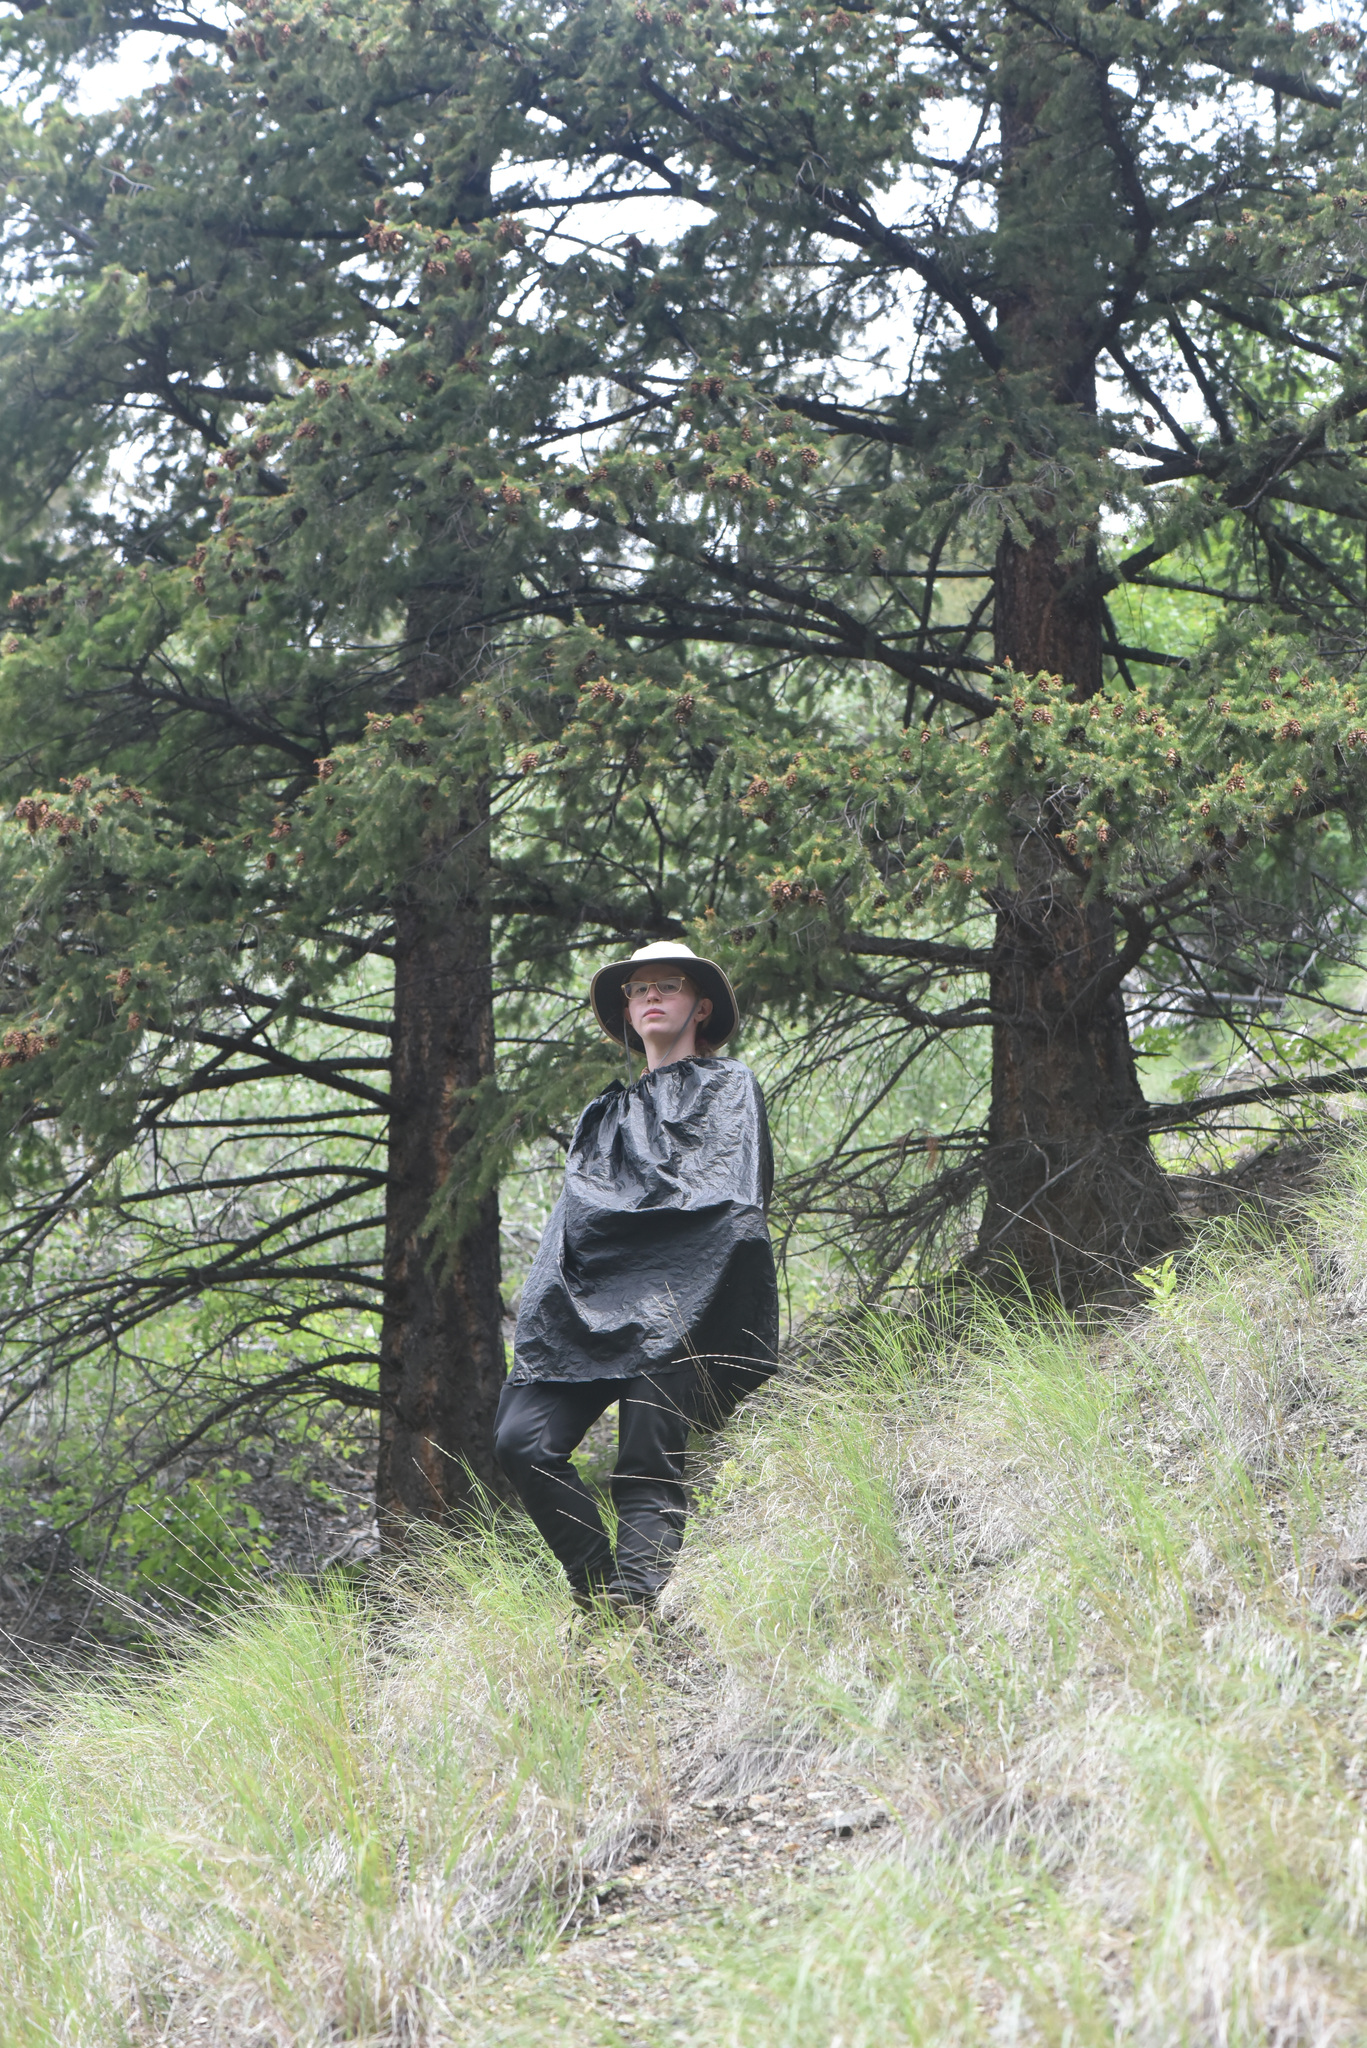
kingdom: Plantae
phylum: Tracheophyta
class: Pinopsida
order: Pinales
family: Pinaceae
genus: Pseudotsuga
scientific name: Pseudotsuga menziesii
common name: Douglas fir
